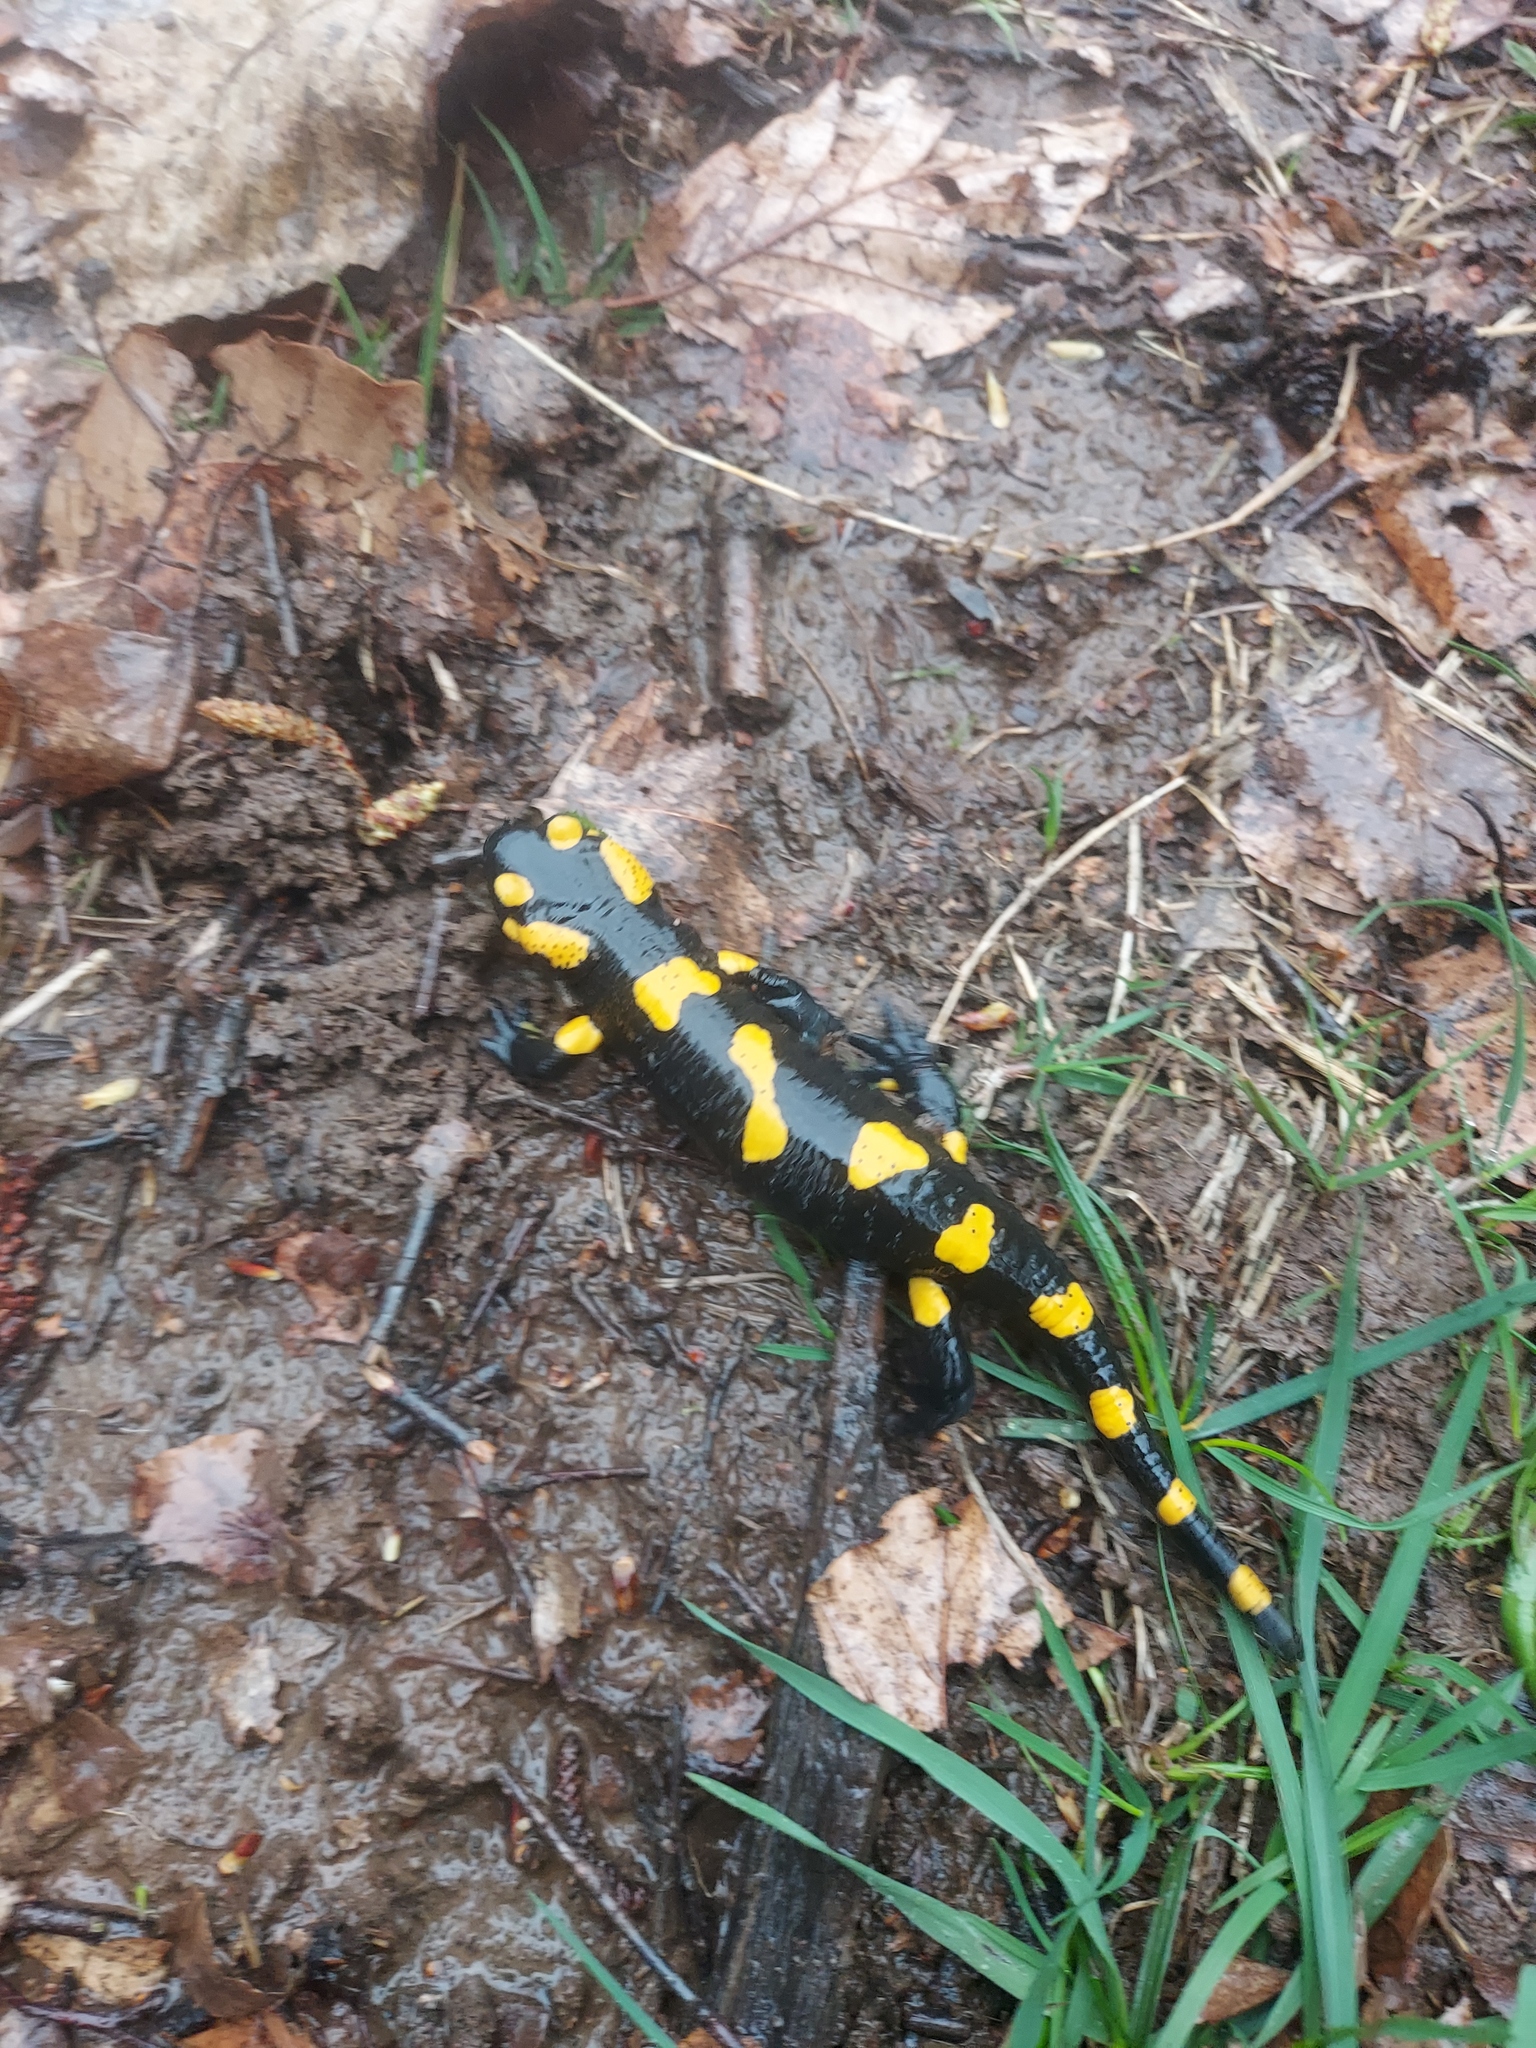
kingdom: Animalia
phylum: Chordata
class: Amphibia
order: Caudata
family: Salamandridae
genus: Salamandra
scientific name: Salamandra salamandra
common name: Fire salamander
